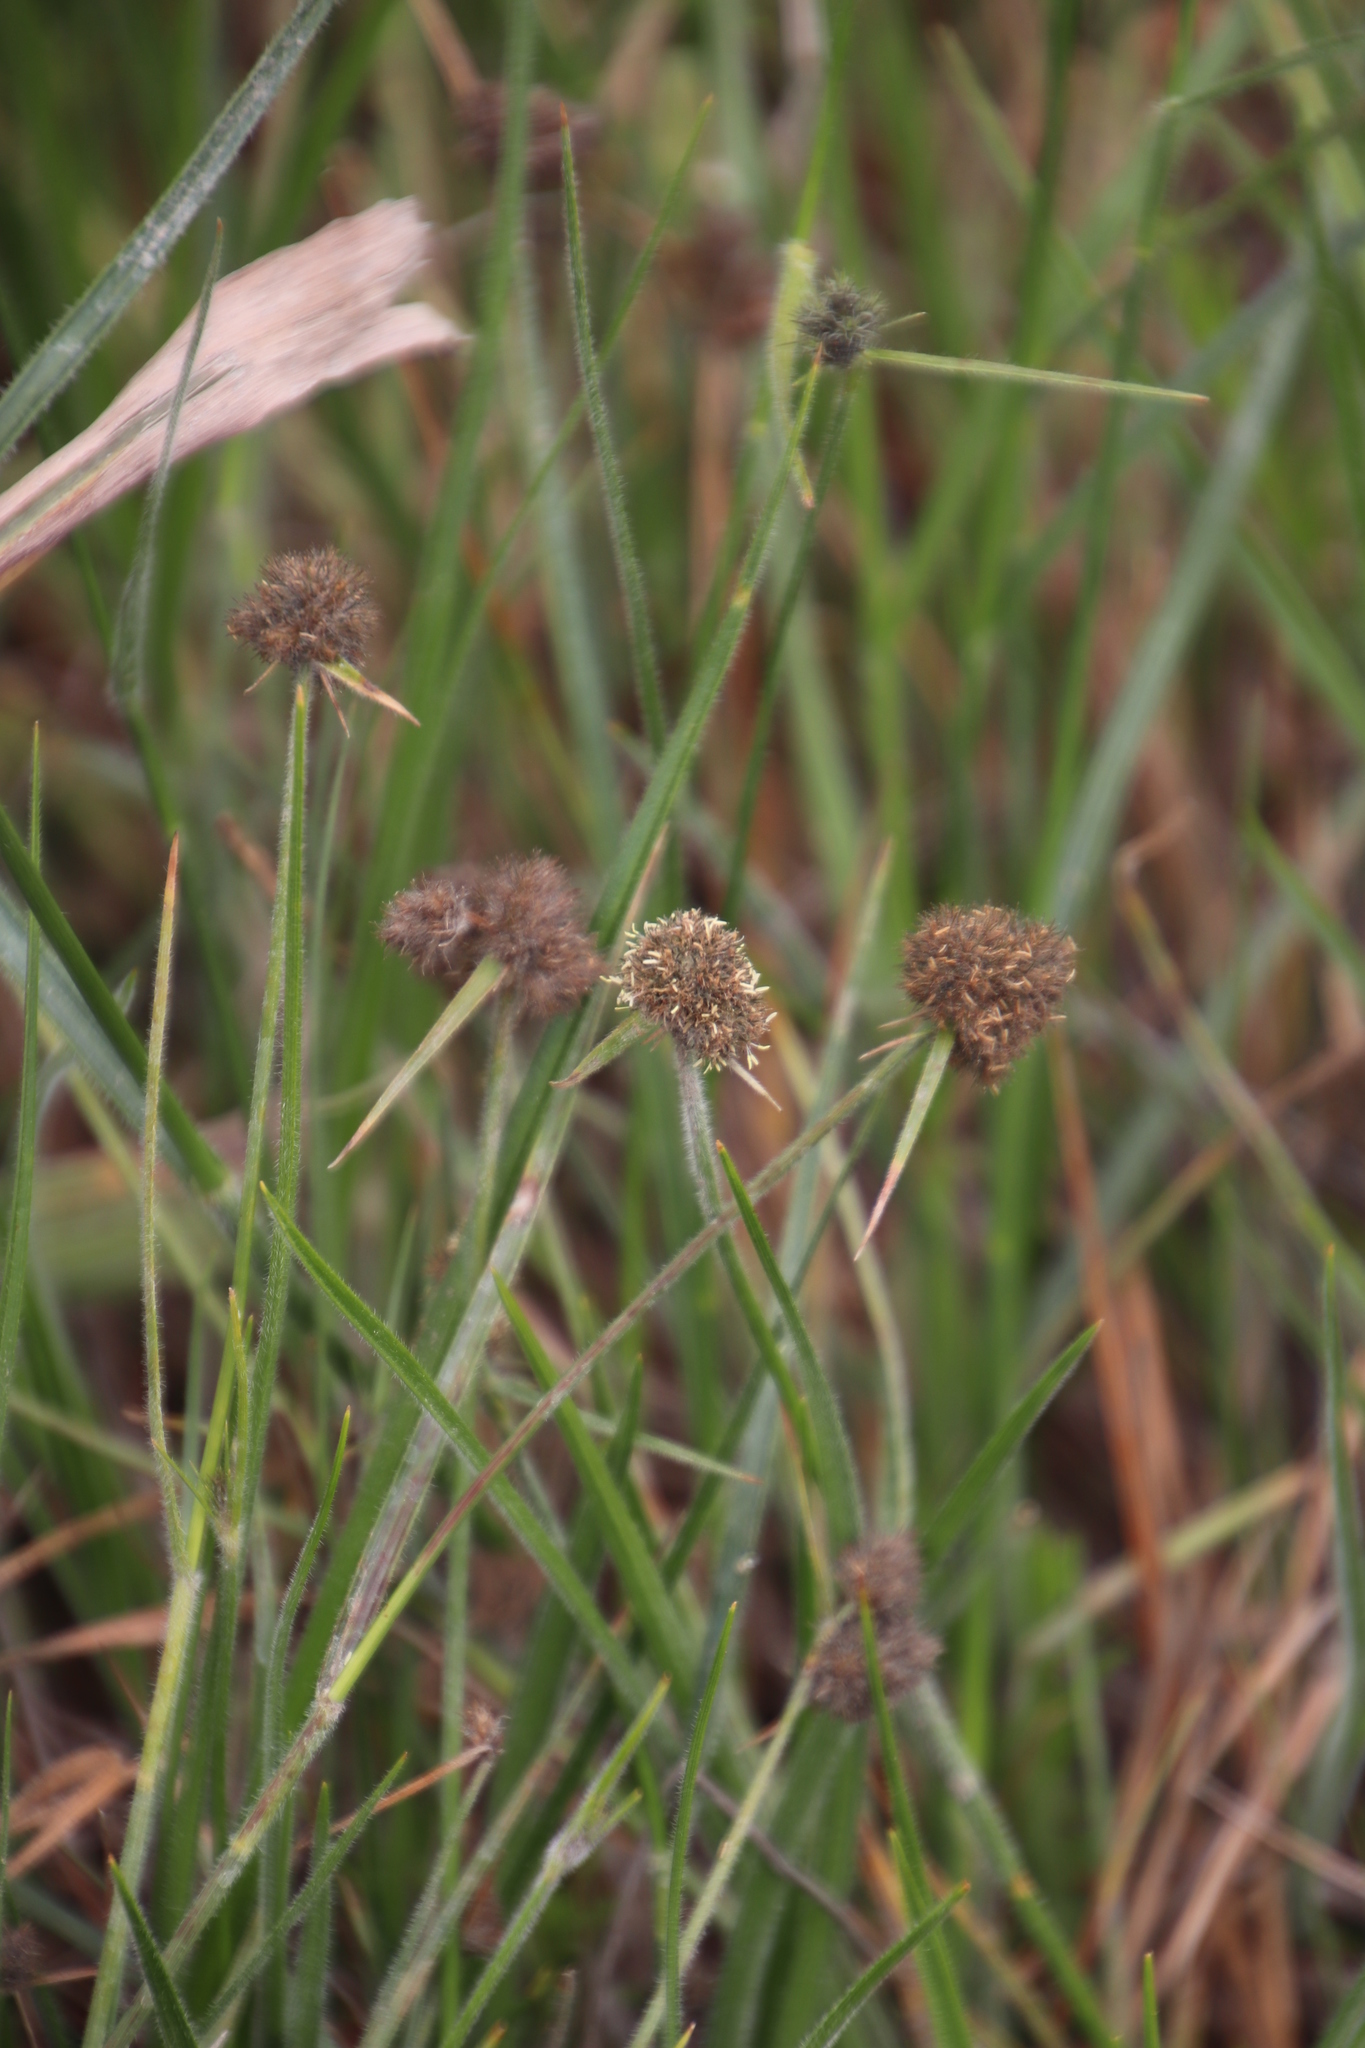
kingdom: Plantae
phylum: Tracheophyta
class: Liliopsida
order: Poales
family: Cyperaceae
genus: Fuirena
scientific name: Fuirena hirsuta
